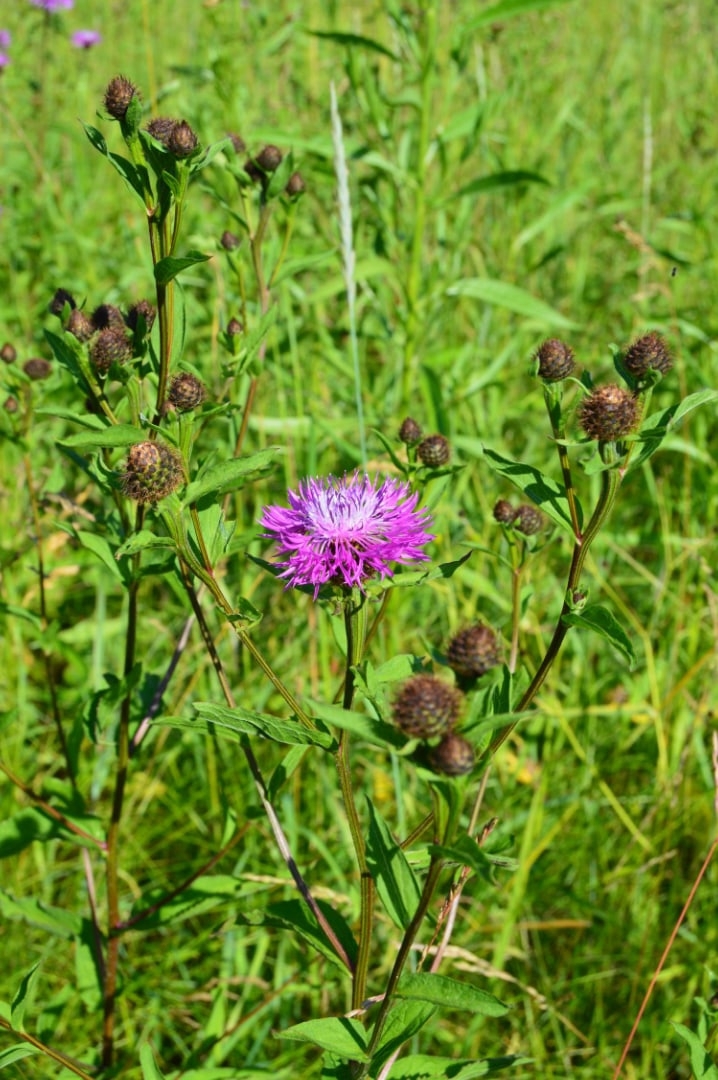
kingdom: Plantae
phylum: Tracheophyta
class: Magnoliopsida
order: Asterales
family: Asteraceae
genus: Centaurea
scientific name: Centaurea phrygia
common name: Wig knapweed
